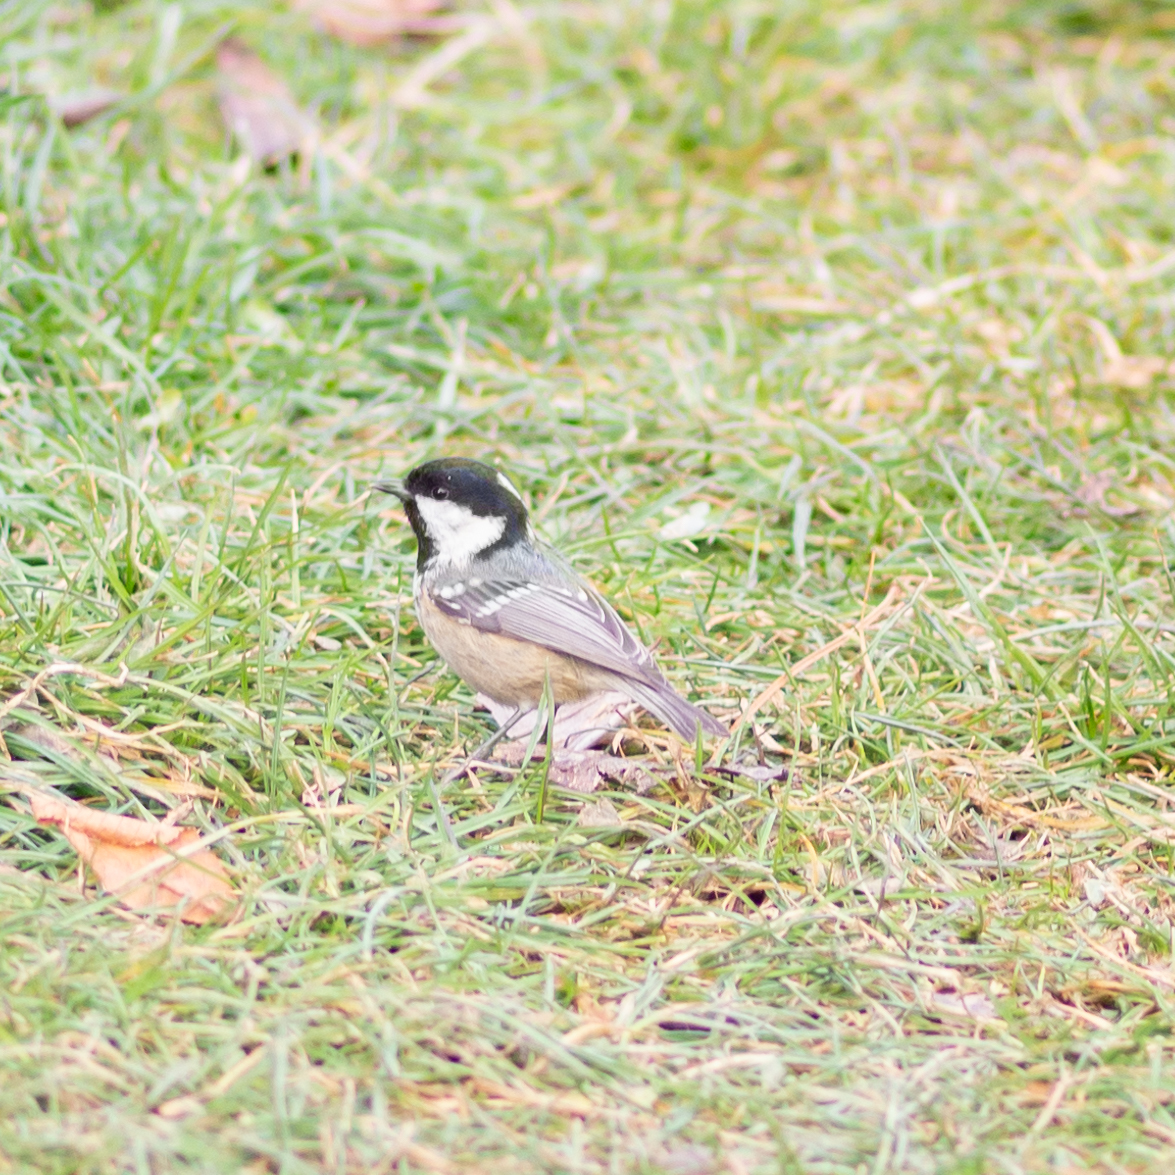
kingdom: Animalia
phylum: Chordata
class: Aves
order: Passeriformes
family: Paridae
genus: Periparus
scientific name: Periparus ater
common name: Coal tit
